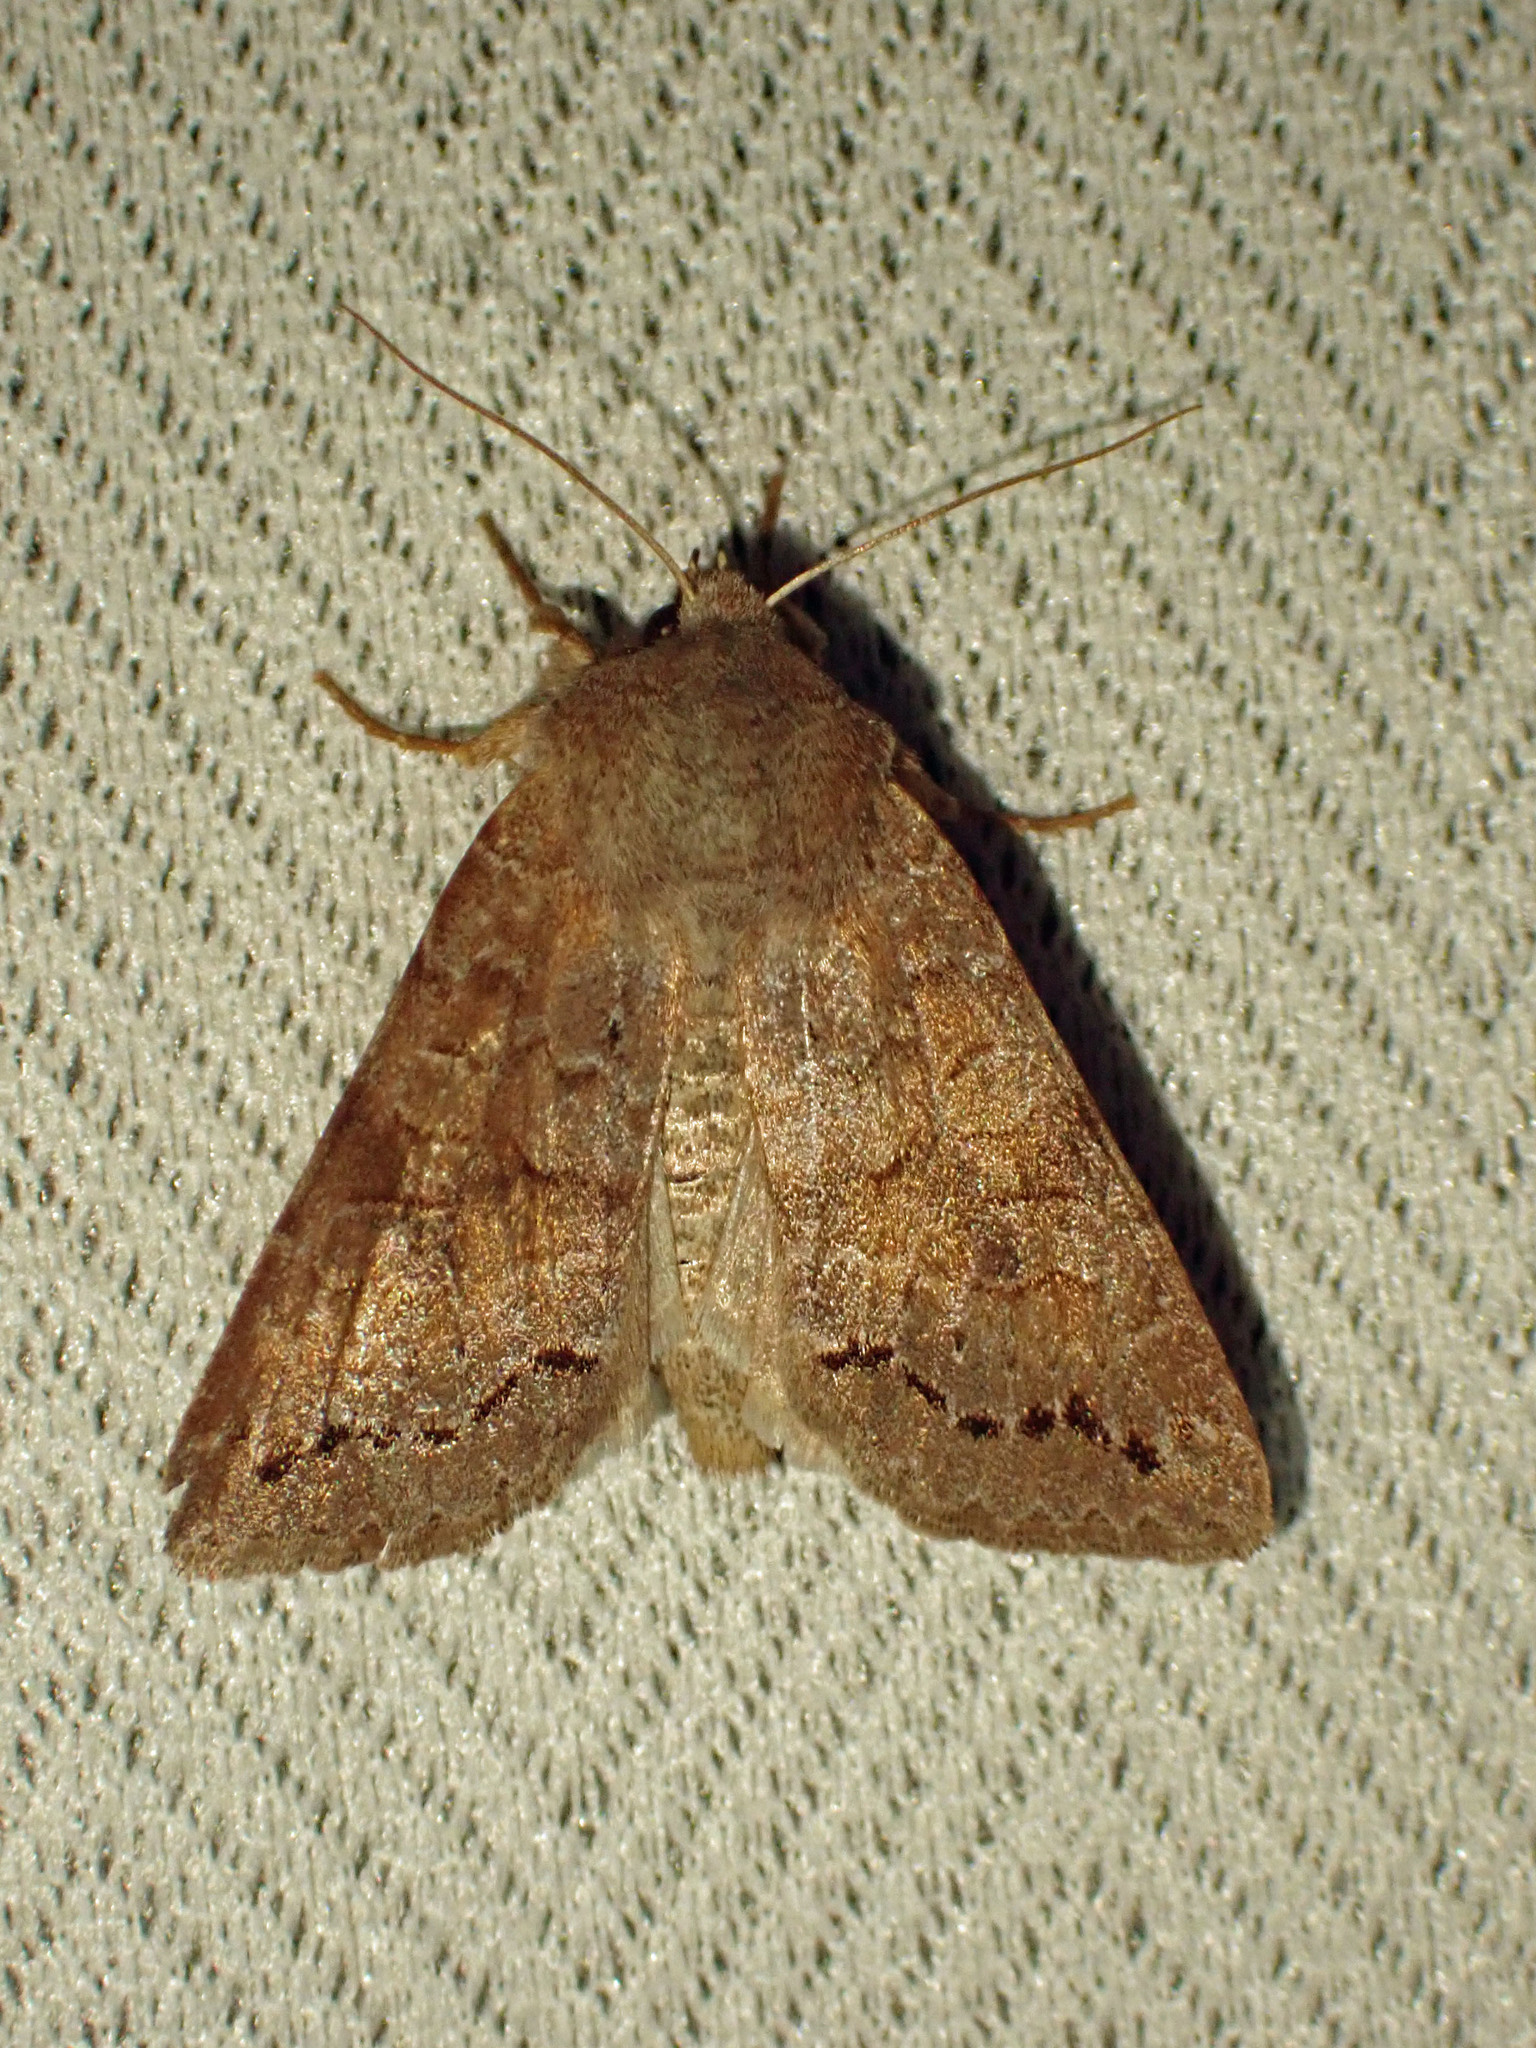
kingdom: Animalia
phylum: Arthropoda
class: Insecta
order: Lepidoptera
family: Noctuidae
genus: Orthosia
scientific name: Orthosia revicta
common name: Rusty whitesided caterpillar
